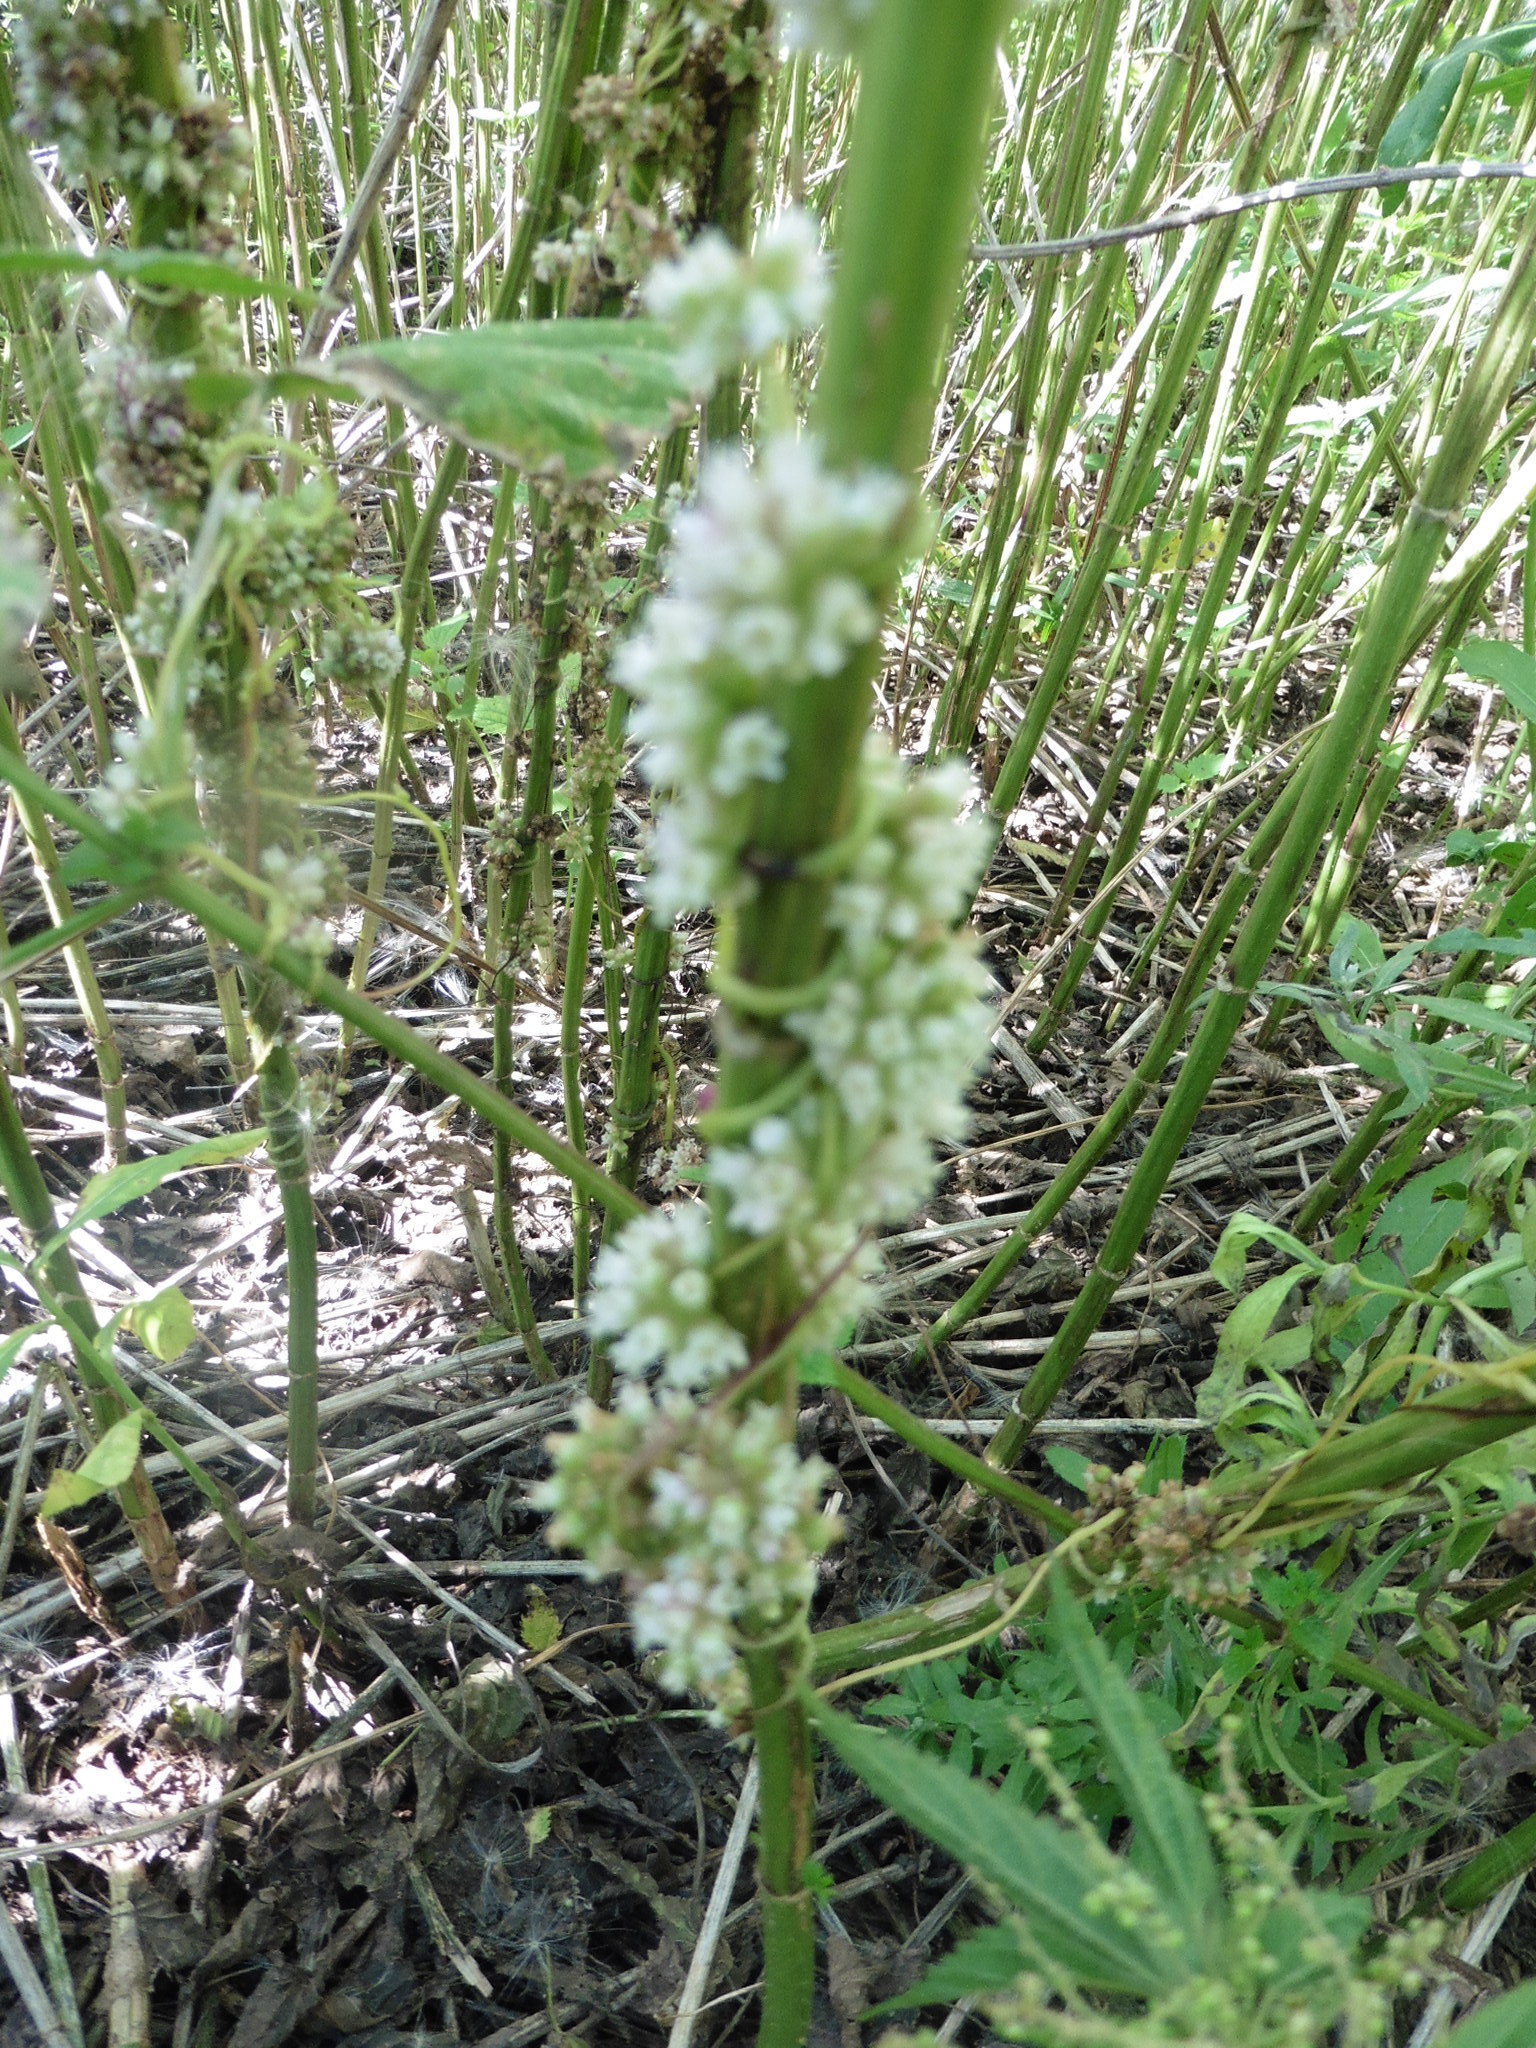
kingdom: Plantae
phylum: Tracheophyta
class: Magnoliopsida
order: Solanales
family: Convolvulaceae
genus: Cuscuta
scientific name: Cuscuta europaea
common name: Greater dodder
